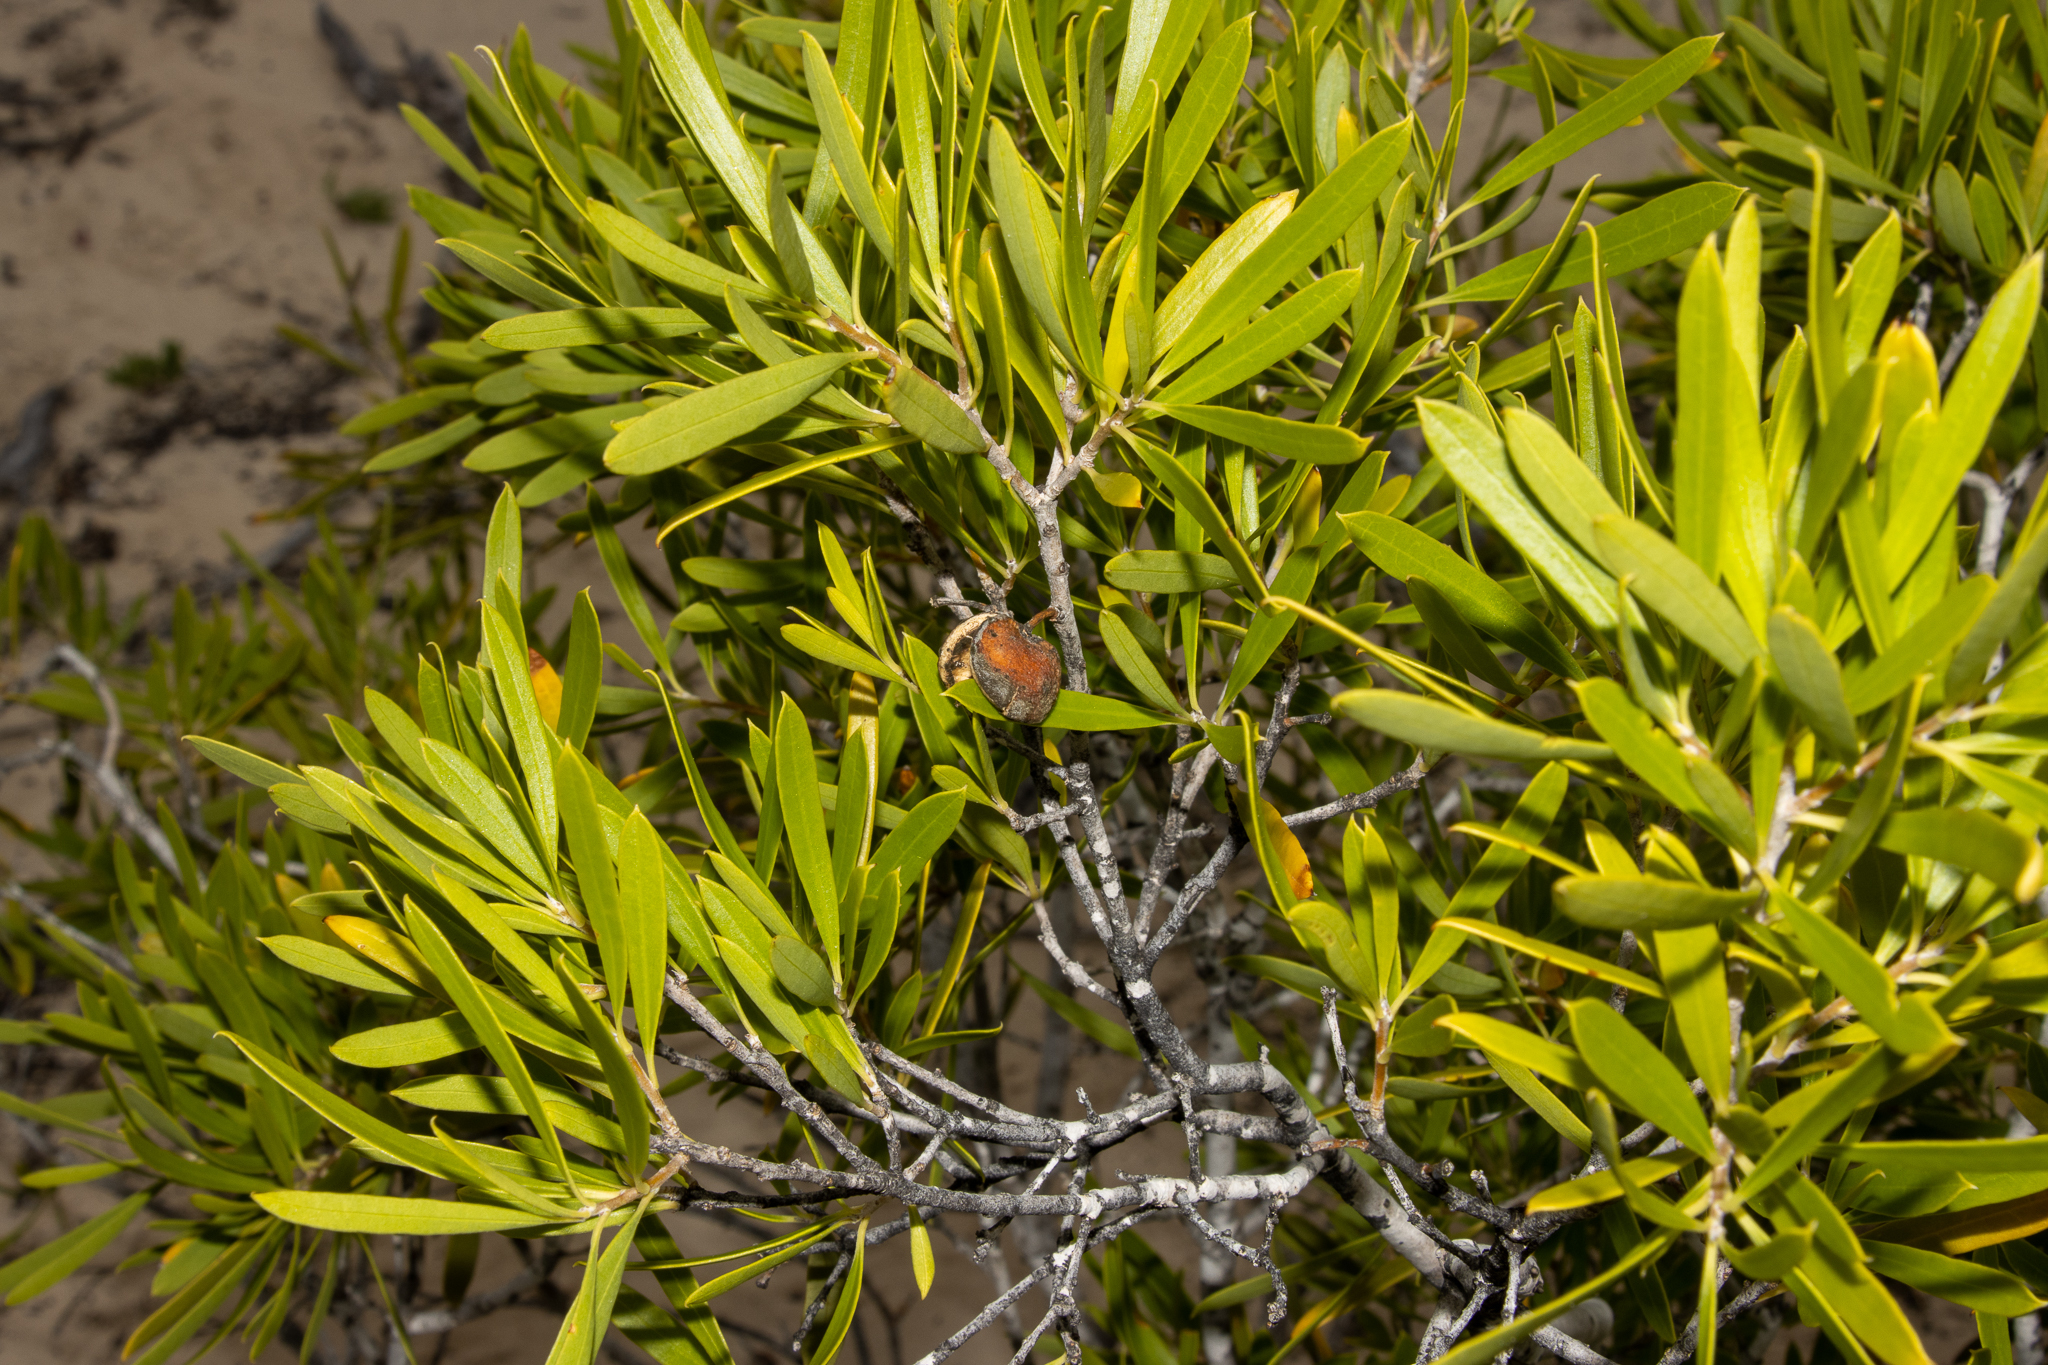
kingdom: Plantae
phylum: Tracheophyta
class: Magnoliopsida
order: Apiales
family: Pittosporaceae
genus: Pittosporum
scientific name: Pittosporum angustifolium
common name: Weeping pittosporum
